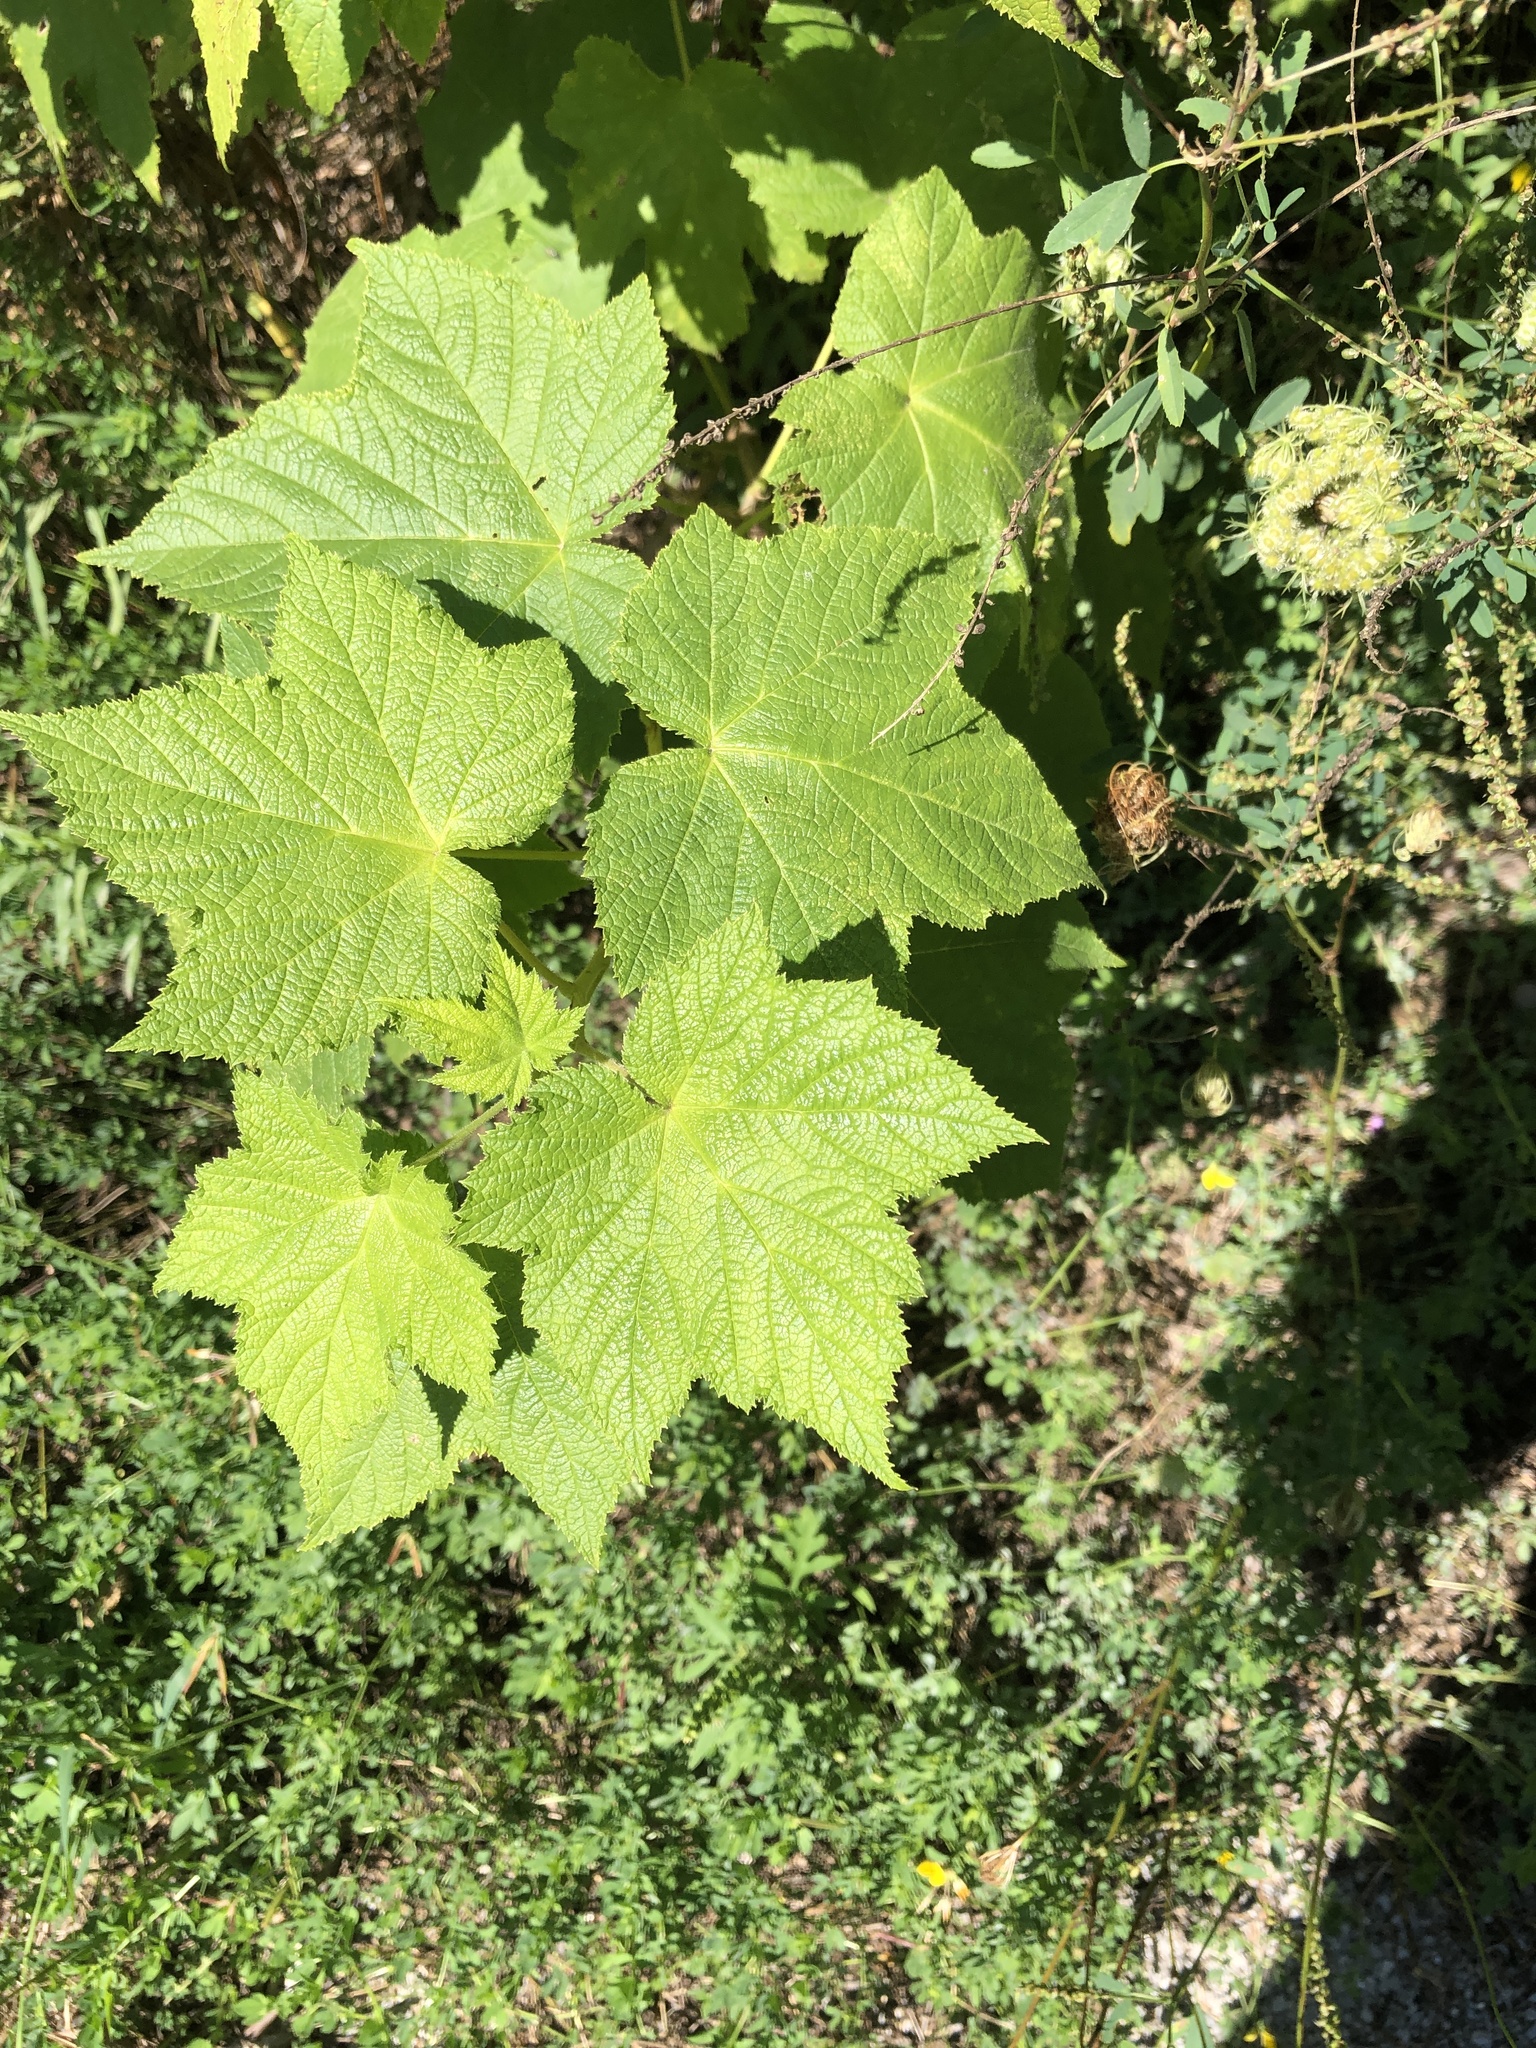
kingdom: Plantae
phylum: Tracheophyta
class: Magnoliopsida
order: Rosales
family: Rosaceae
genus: Rubus
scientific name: Rubus odoratus
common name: Purple-flowered raspberry
